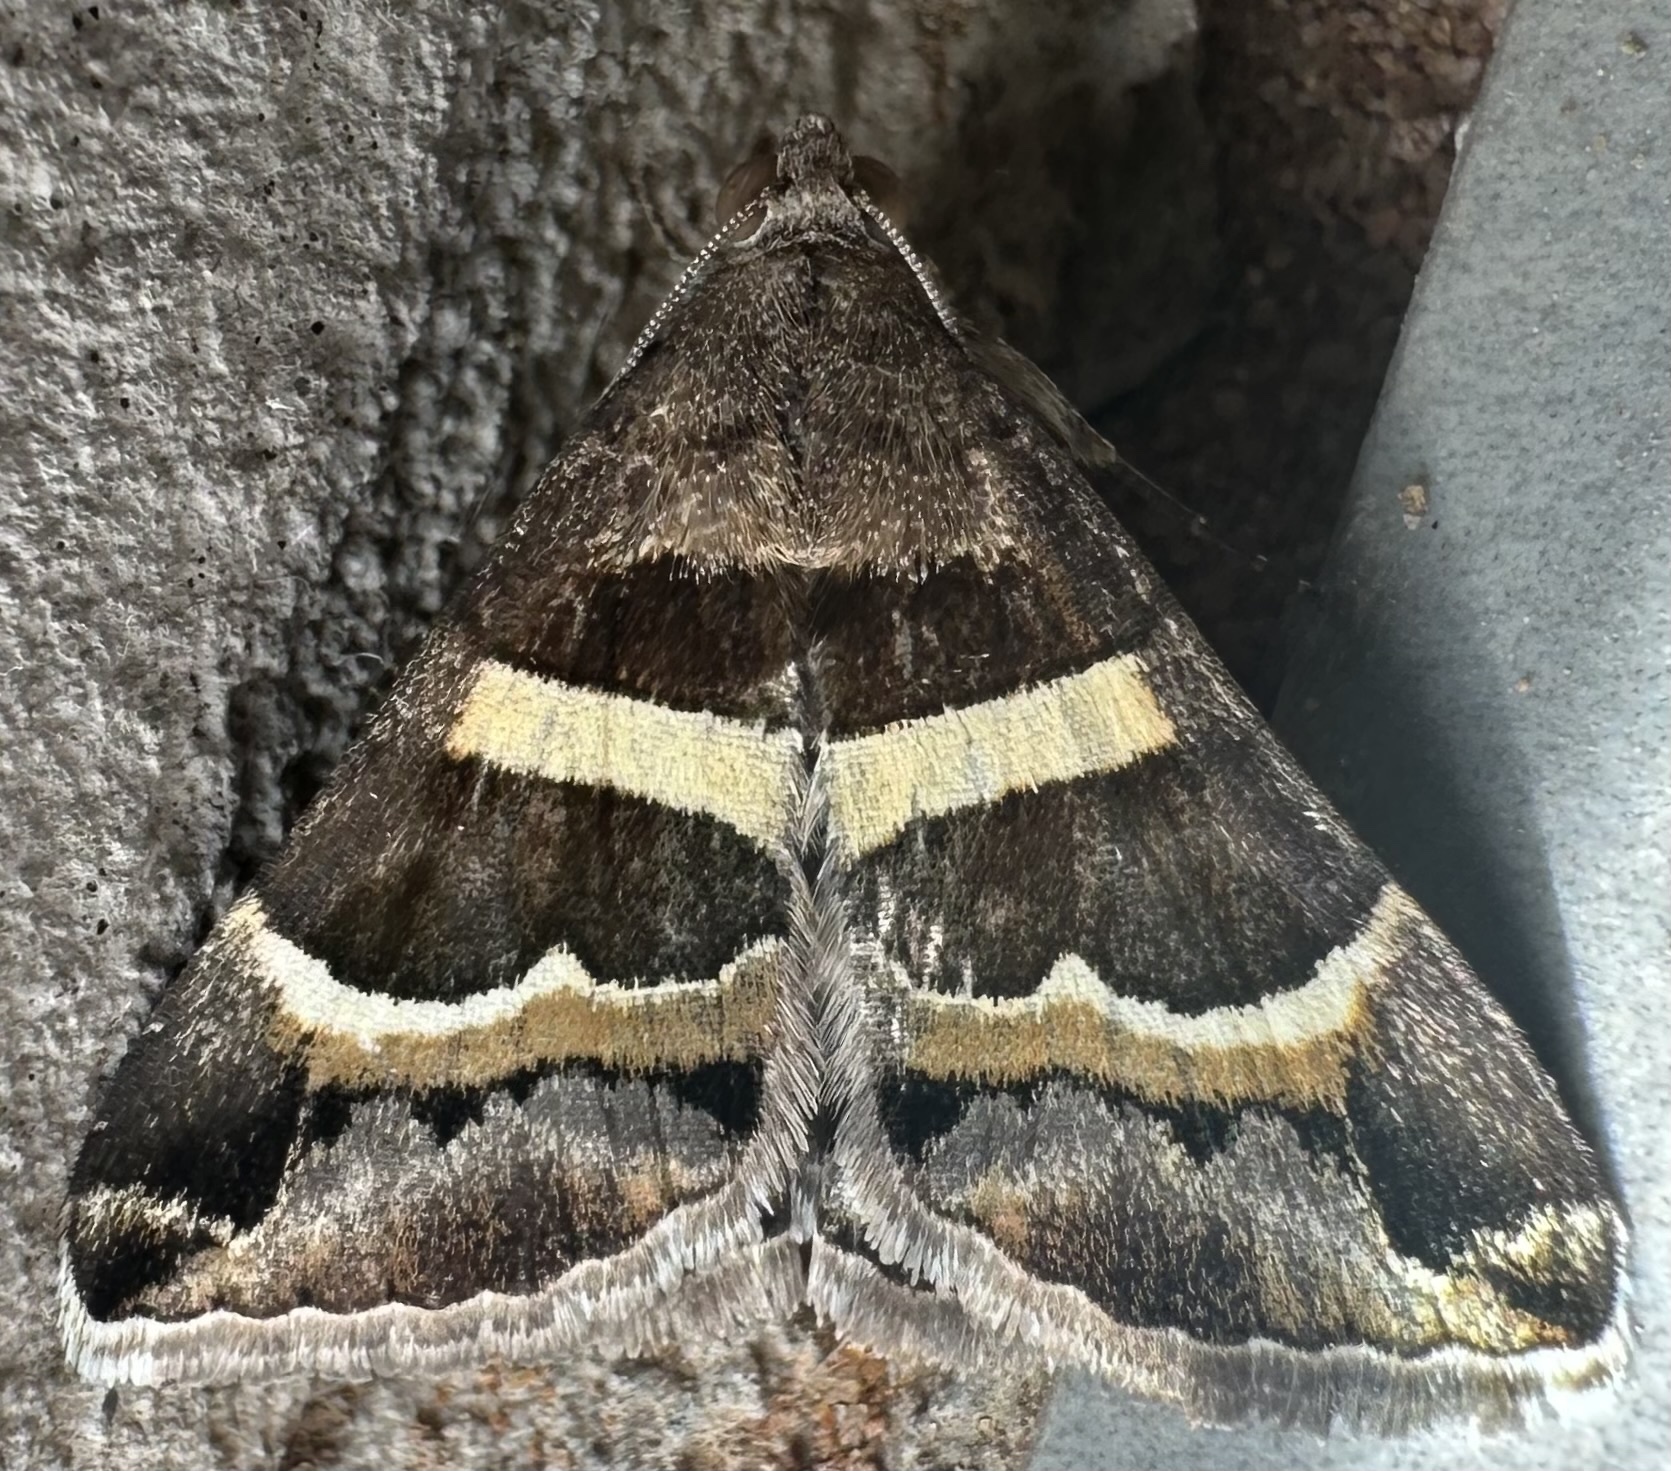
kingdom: Animalia
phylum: Arthropoda
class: Insecta
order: Lepidoptera
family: Erebidae
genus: Grammodes
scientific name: Grammodes stolida
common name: Geometrician
